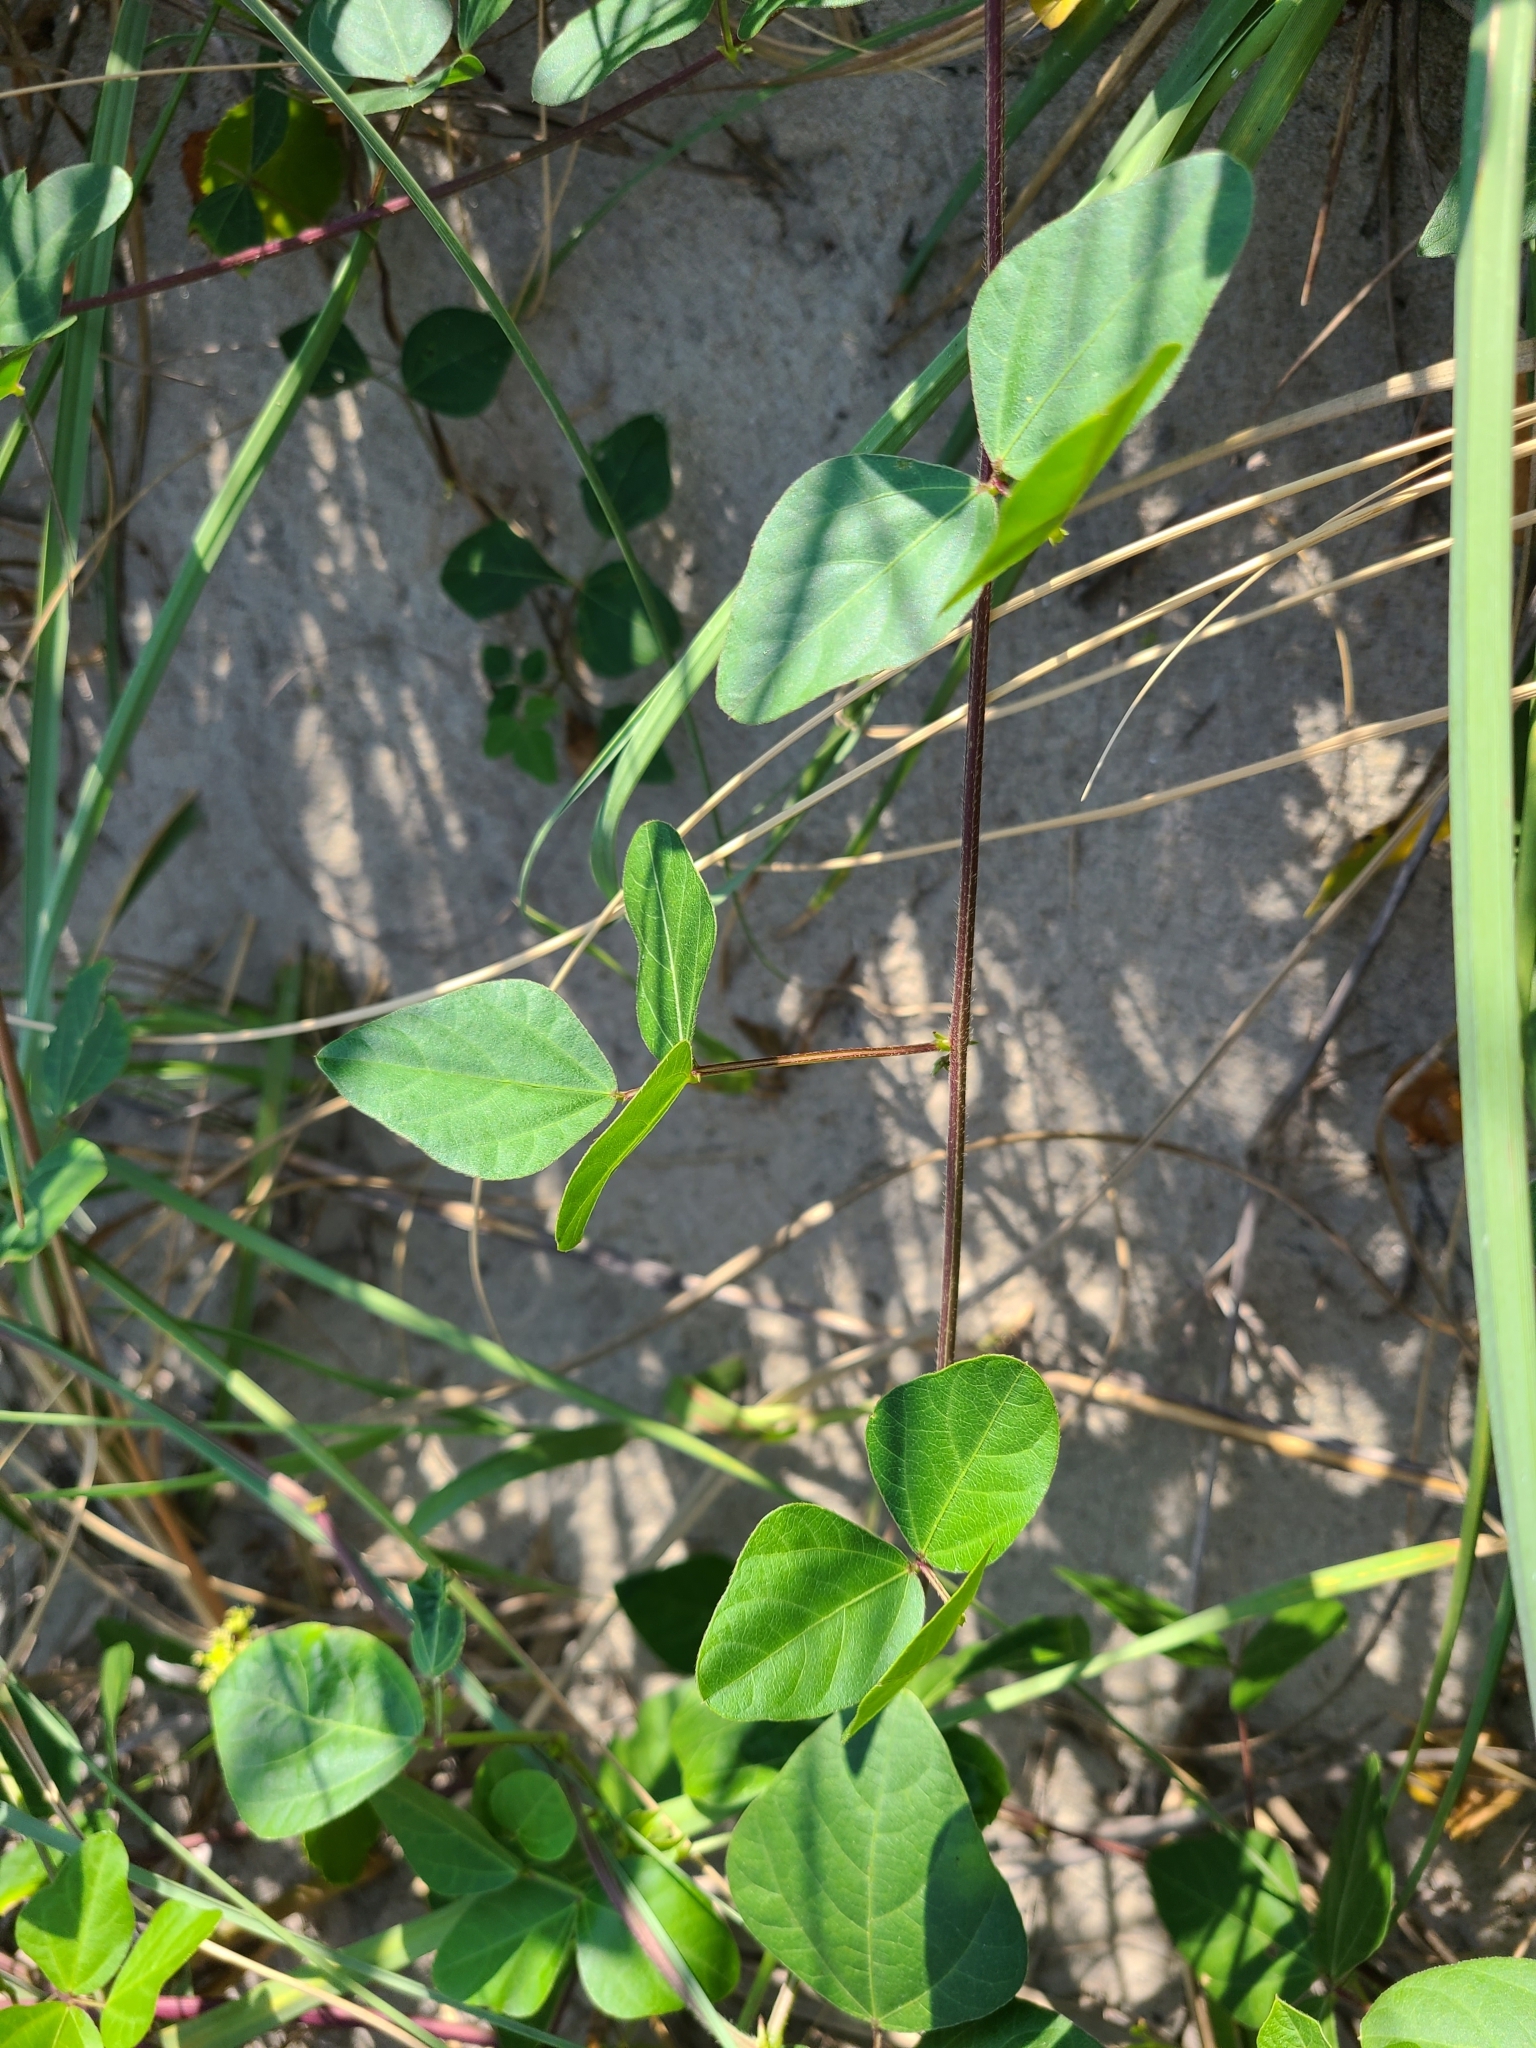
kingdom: Plantae
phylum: Tracheophyta
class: Magnoliopsida
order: Fabales
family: Fabaceae
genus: Strophostyles
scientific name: Strophostyles helvola
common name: Trailing wild bean
